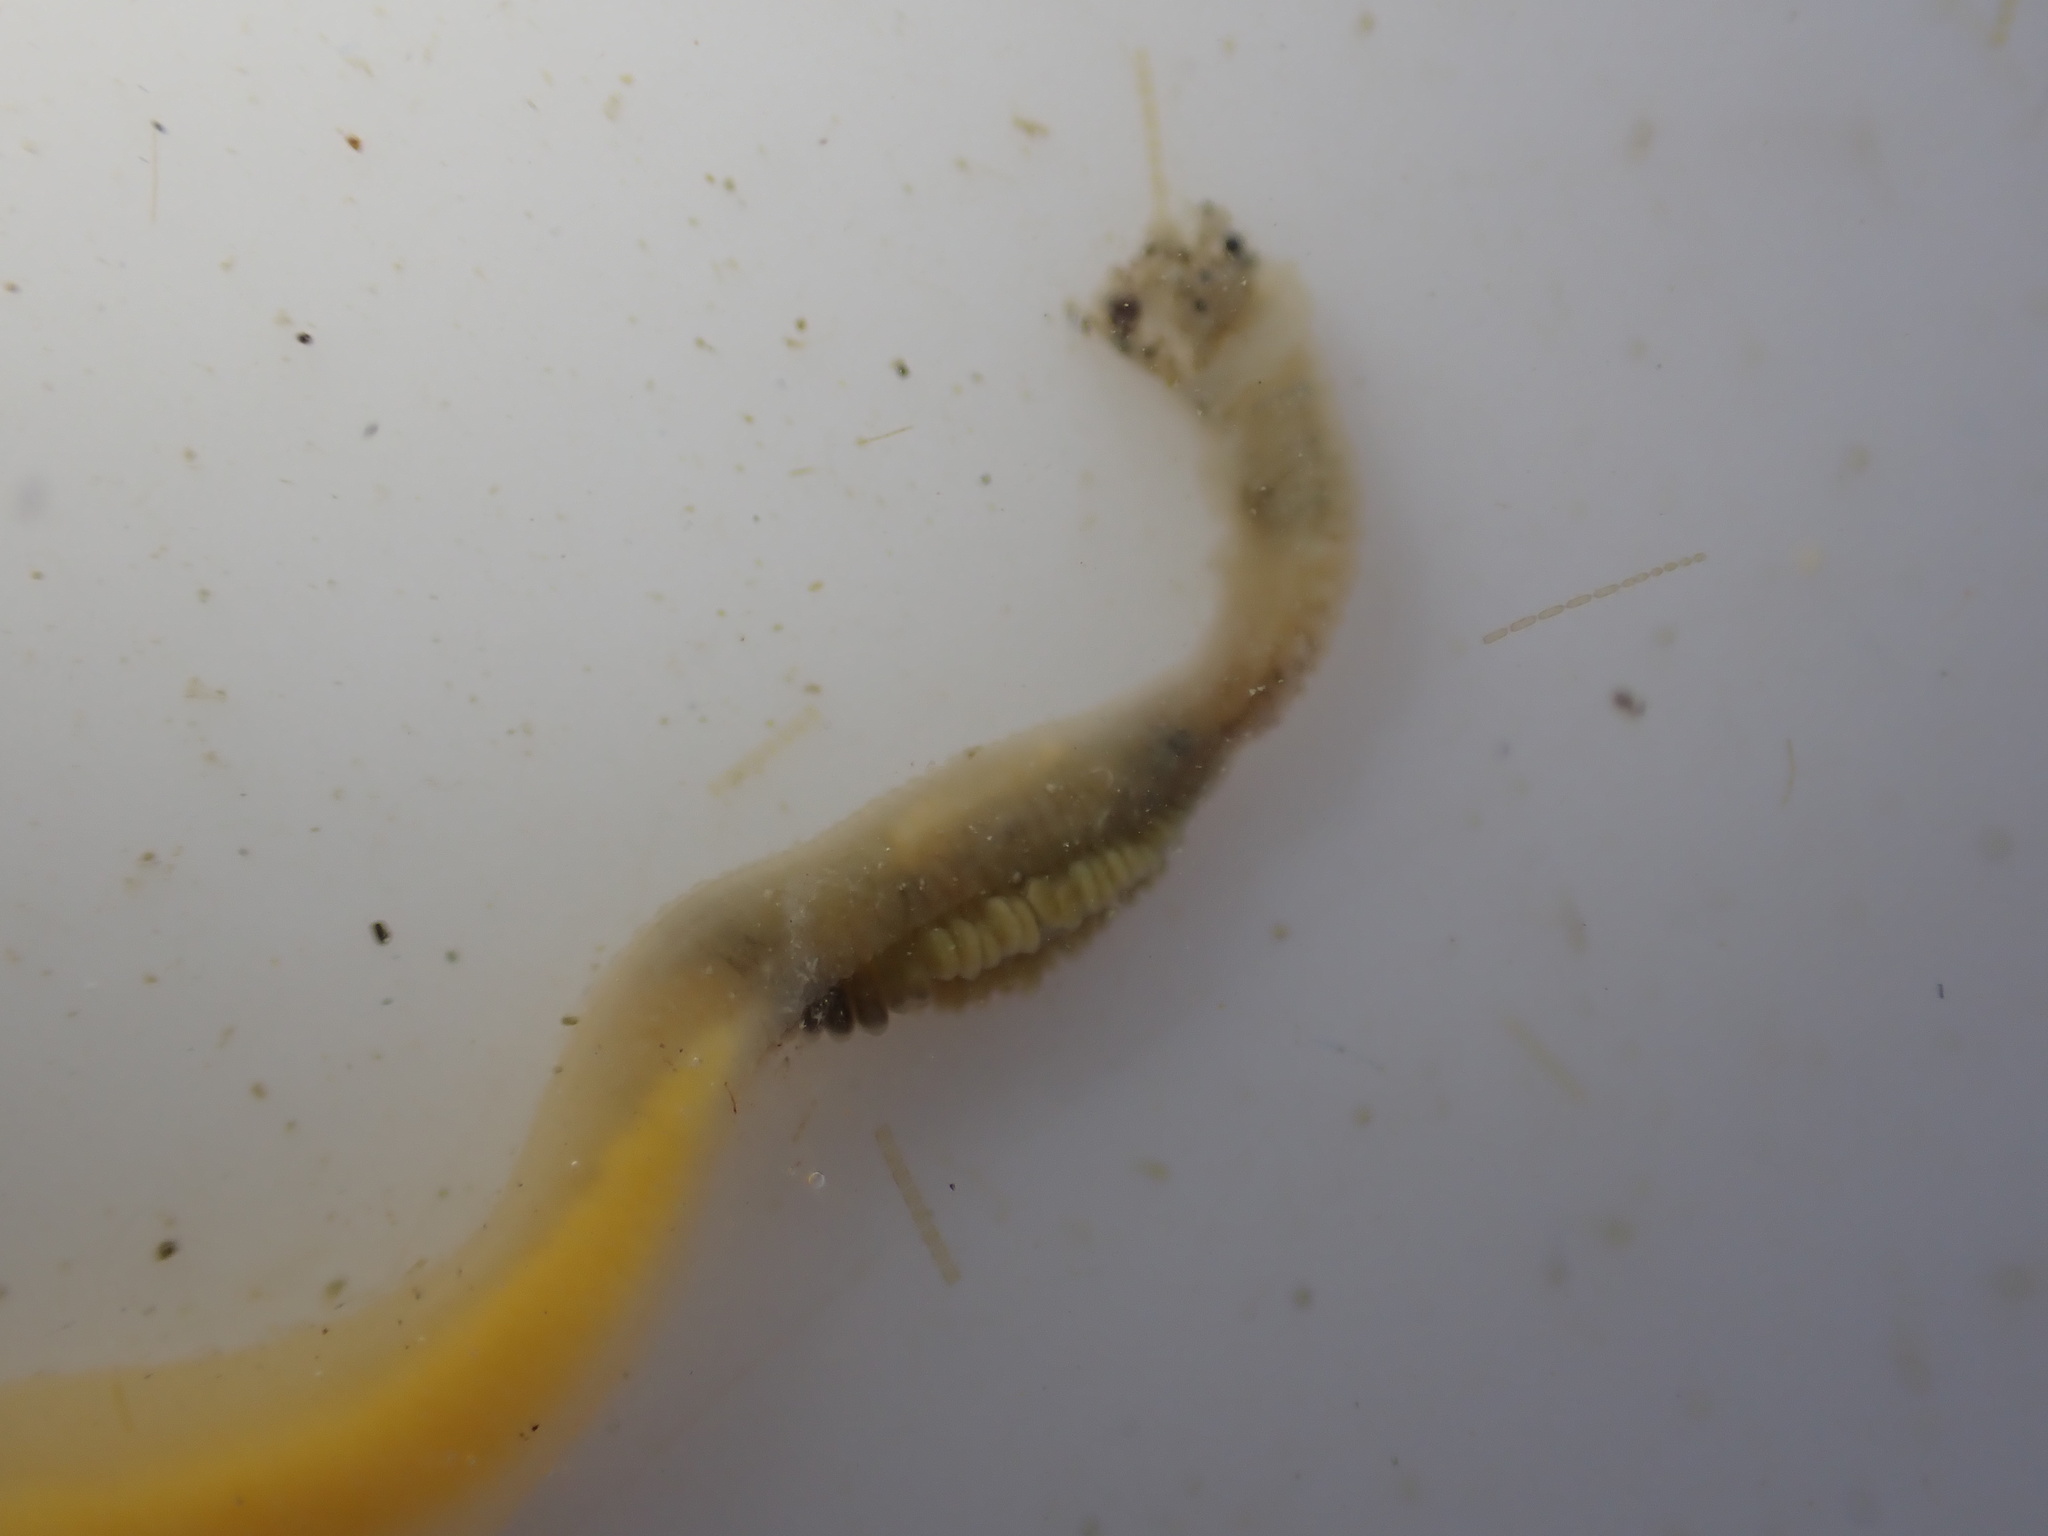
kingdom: Animalia
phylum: Hemichordata
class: Enteropneusta
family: Ptychoderidae
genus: Balanoglossus
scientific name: Balanoglossus australiensis
